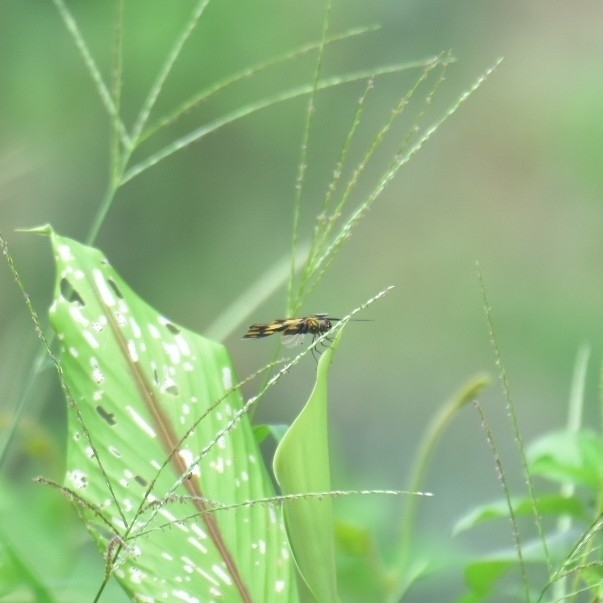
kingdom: Animalia
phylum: Arthropoda
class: Insecta
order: Odonata
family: Libellulidae
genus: Rhyothemis
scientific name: Rhyothemis variegata
